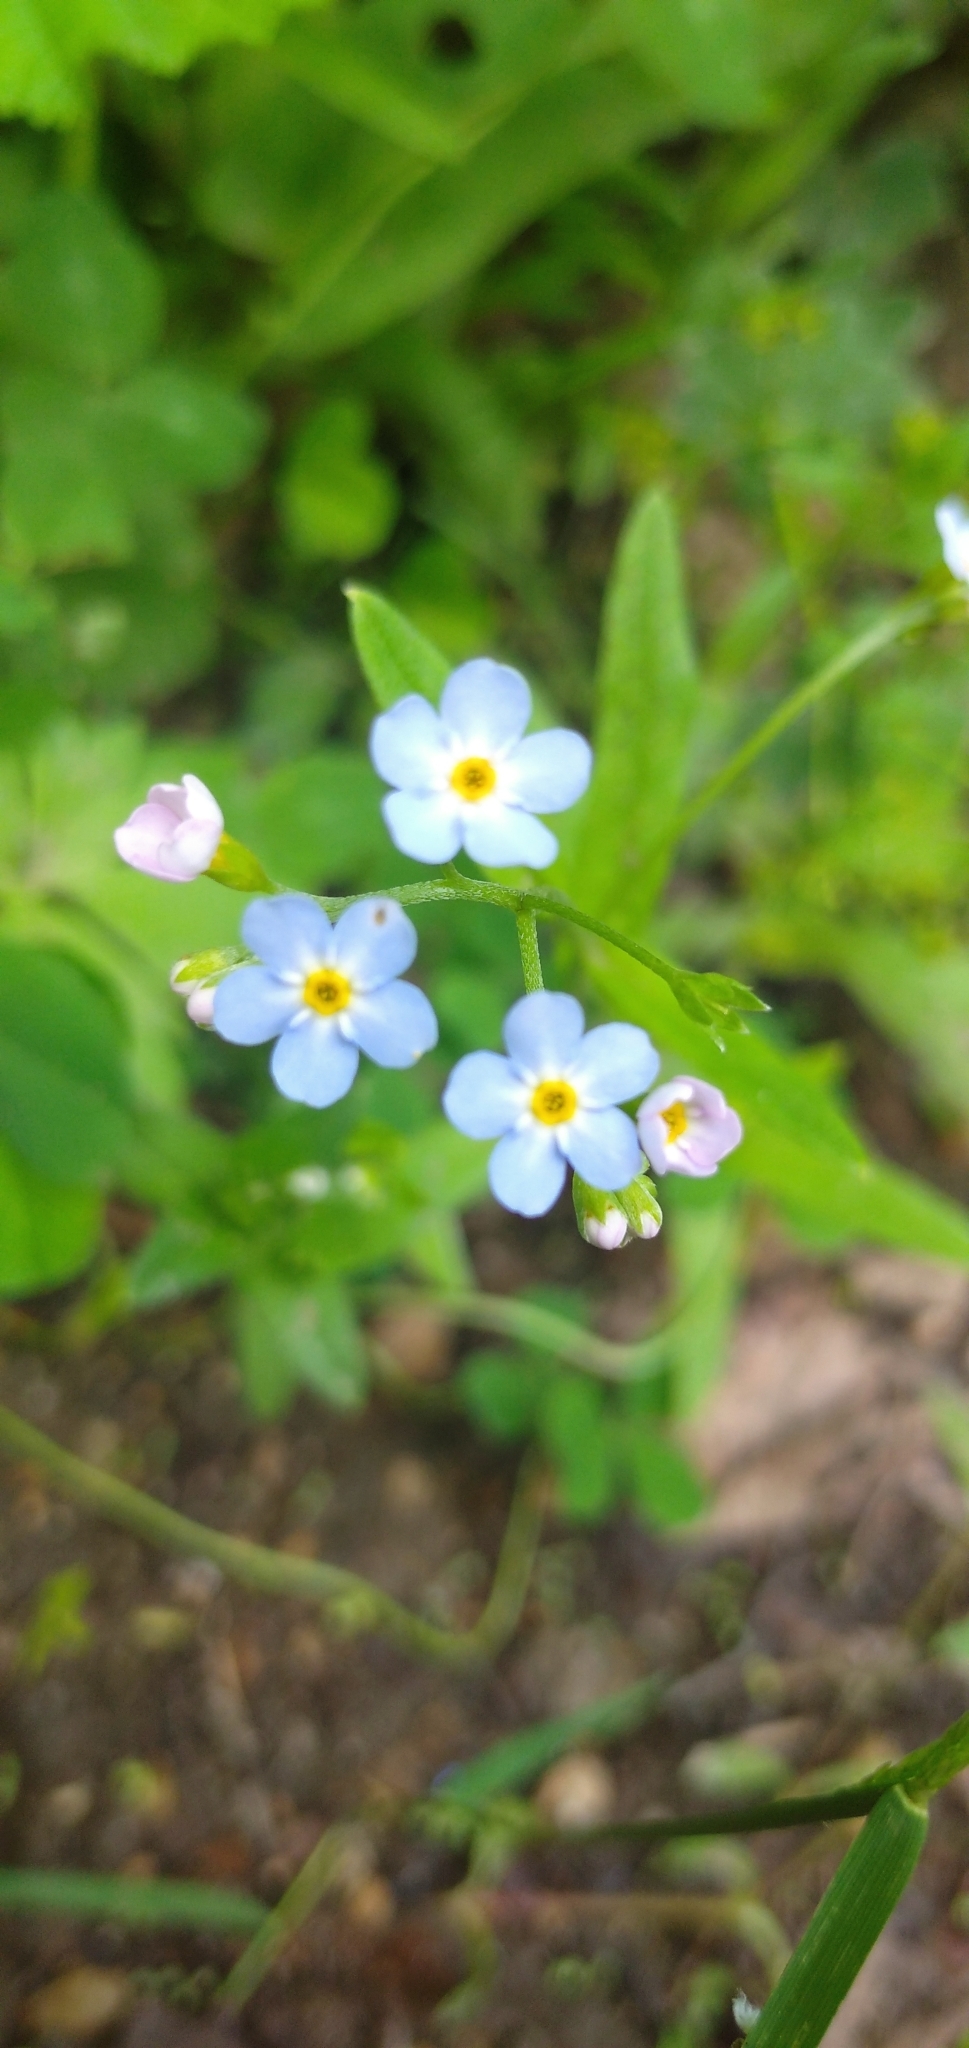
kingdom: Plantae
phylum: Tracheophyta
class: Magnoliopsida
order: Boraginales
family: Boraginaceae
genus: Myosotis
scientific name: Myosotis scorpioides
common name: Water forget-me-not
